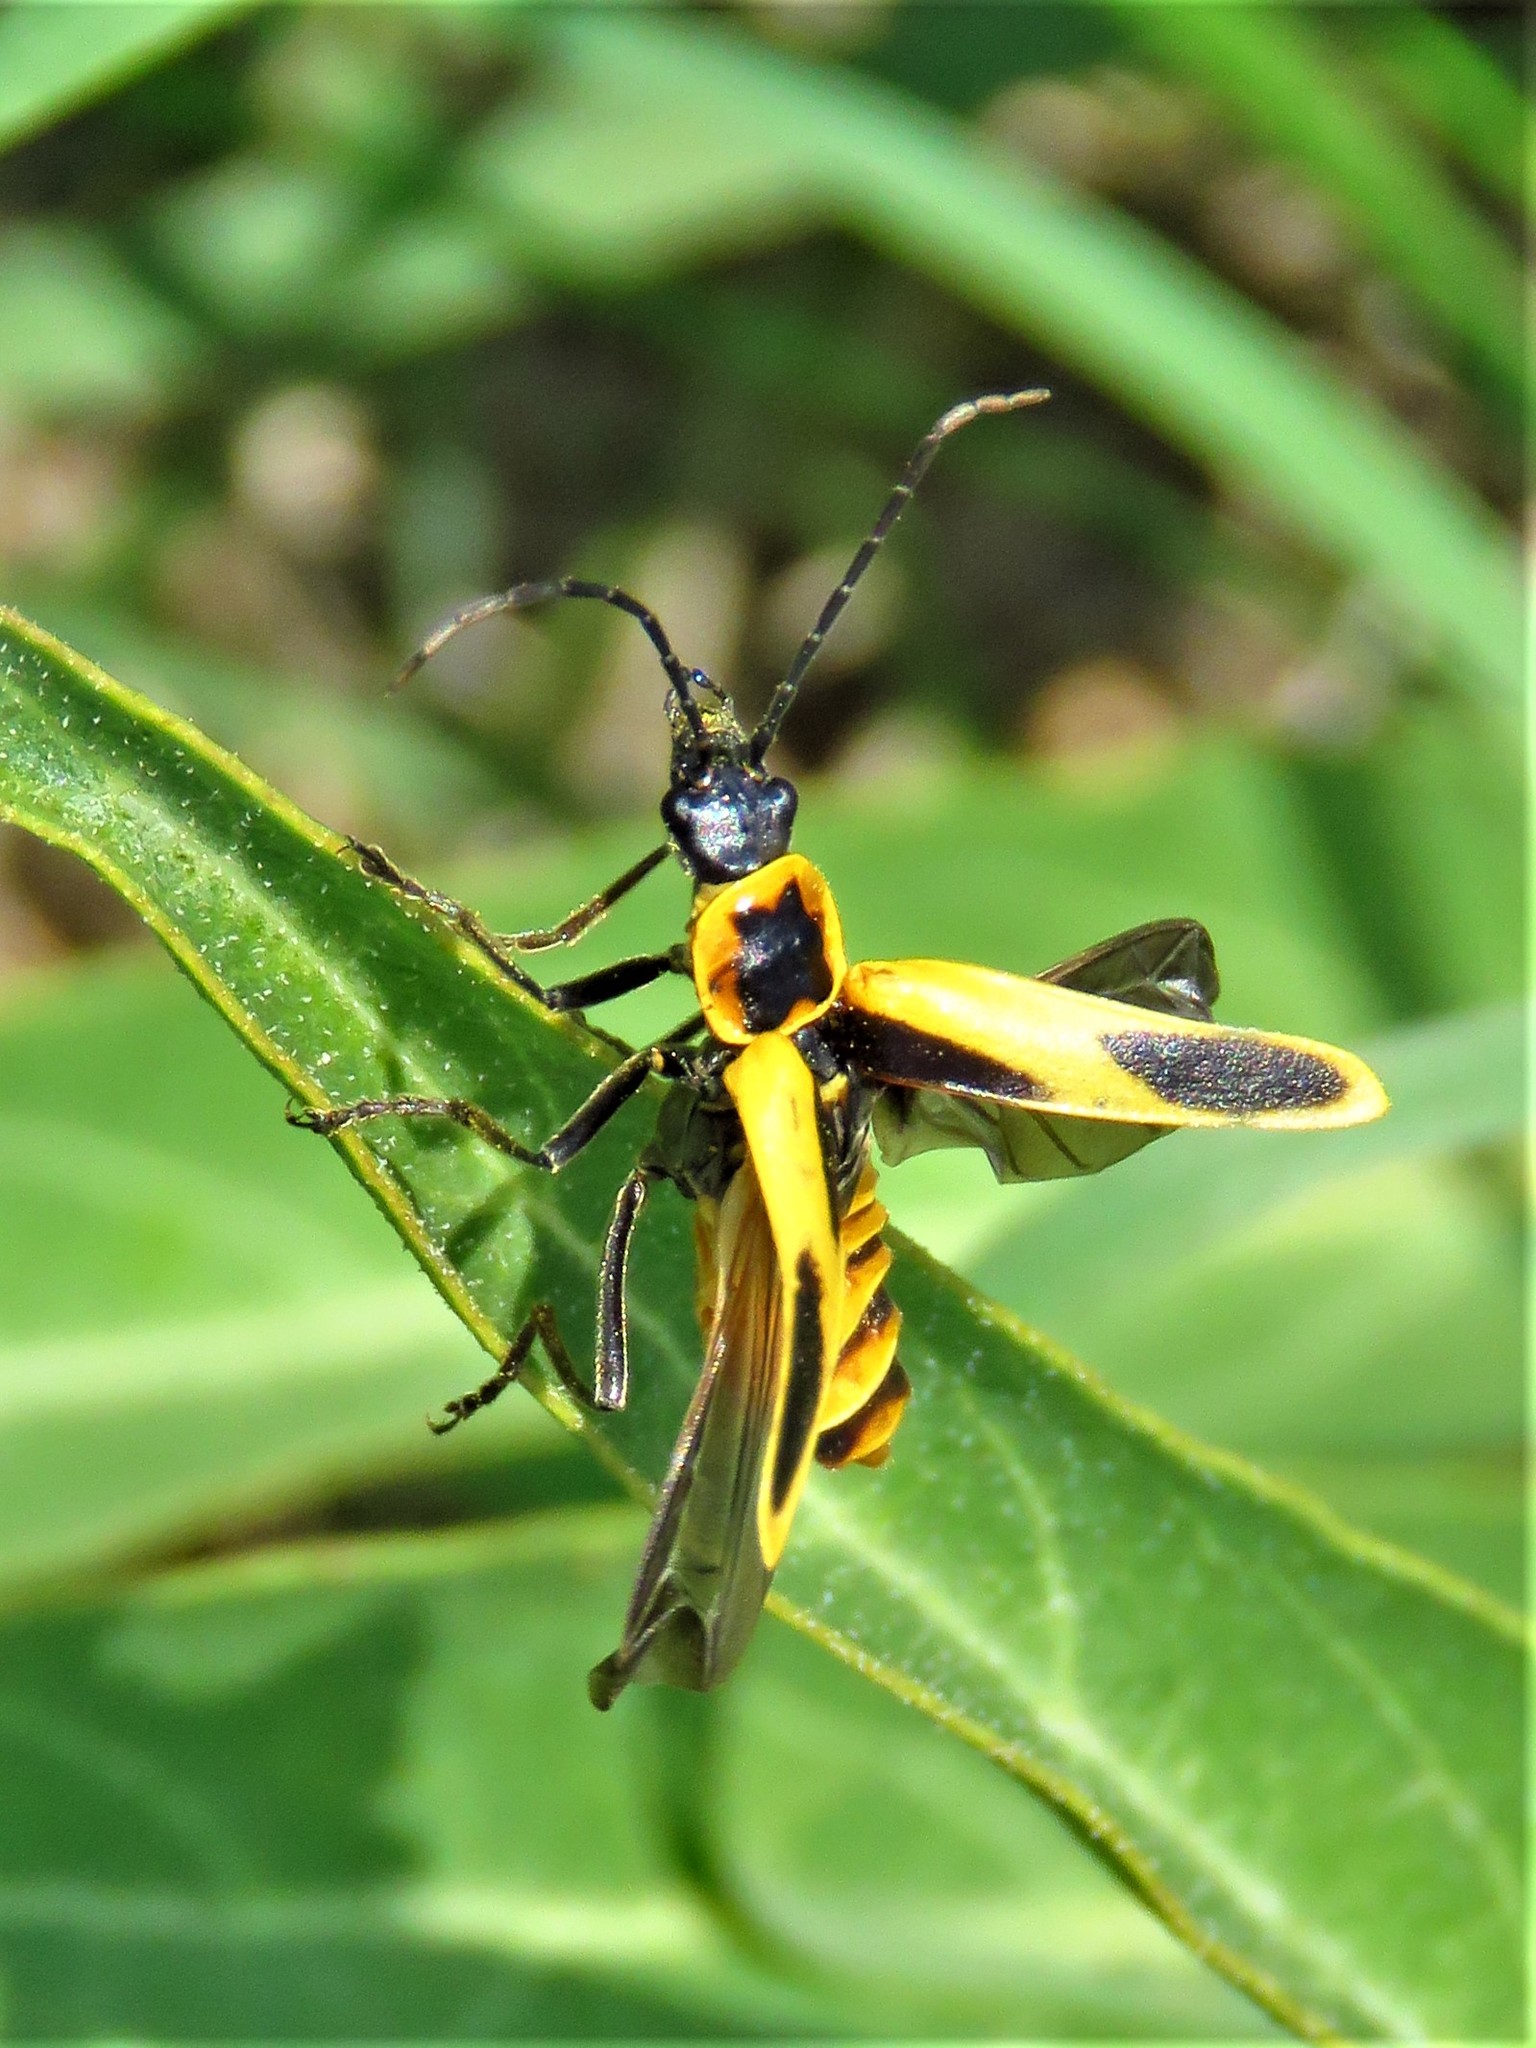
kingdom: Animalia
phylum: Arthropoda
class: Insecta
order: Coleoptera
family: Cantharidae
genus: Chauliognathus
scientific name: Chauliognathus scutellaris
